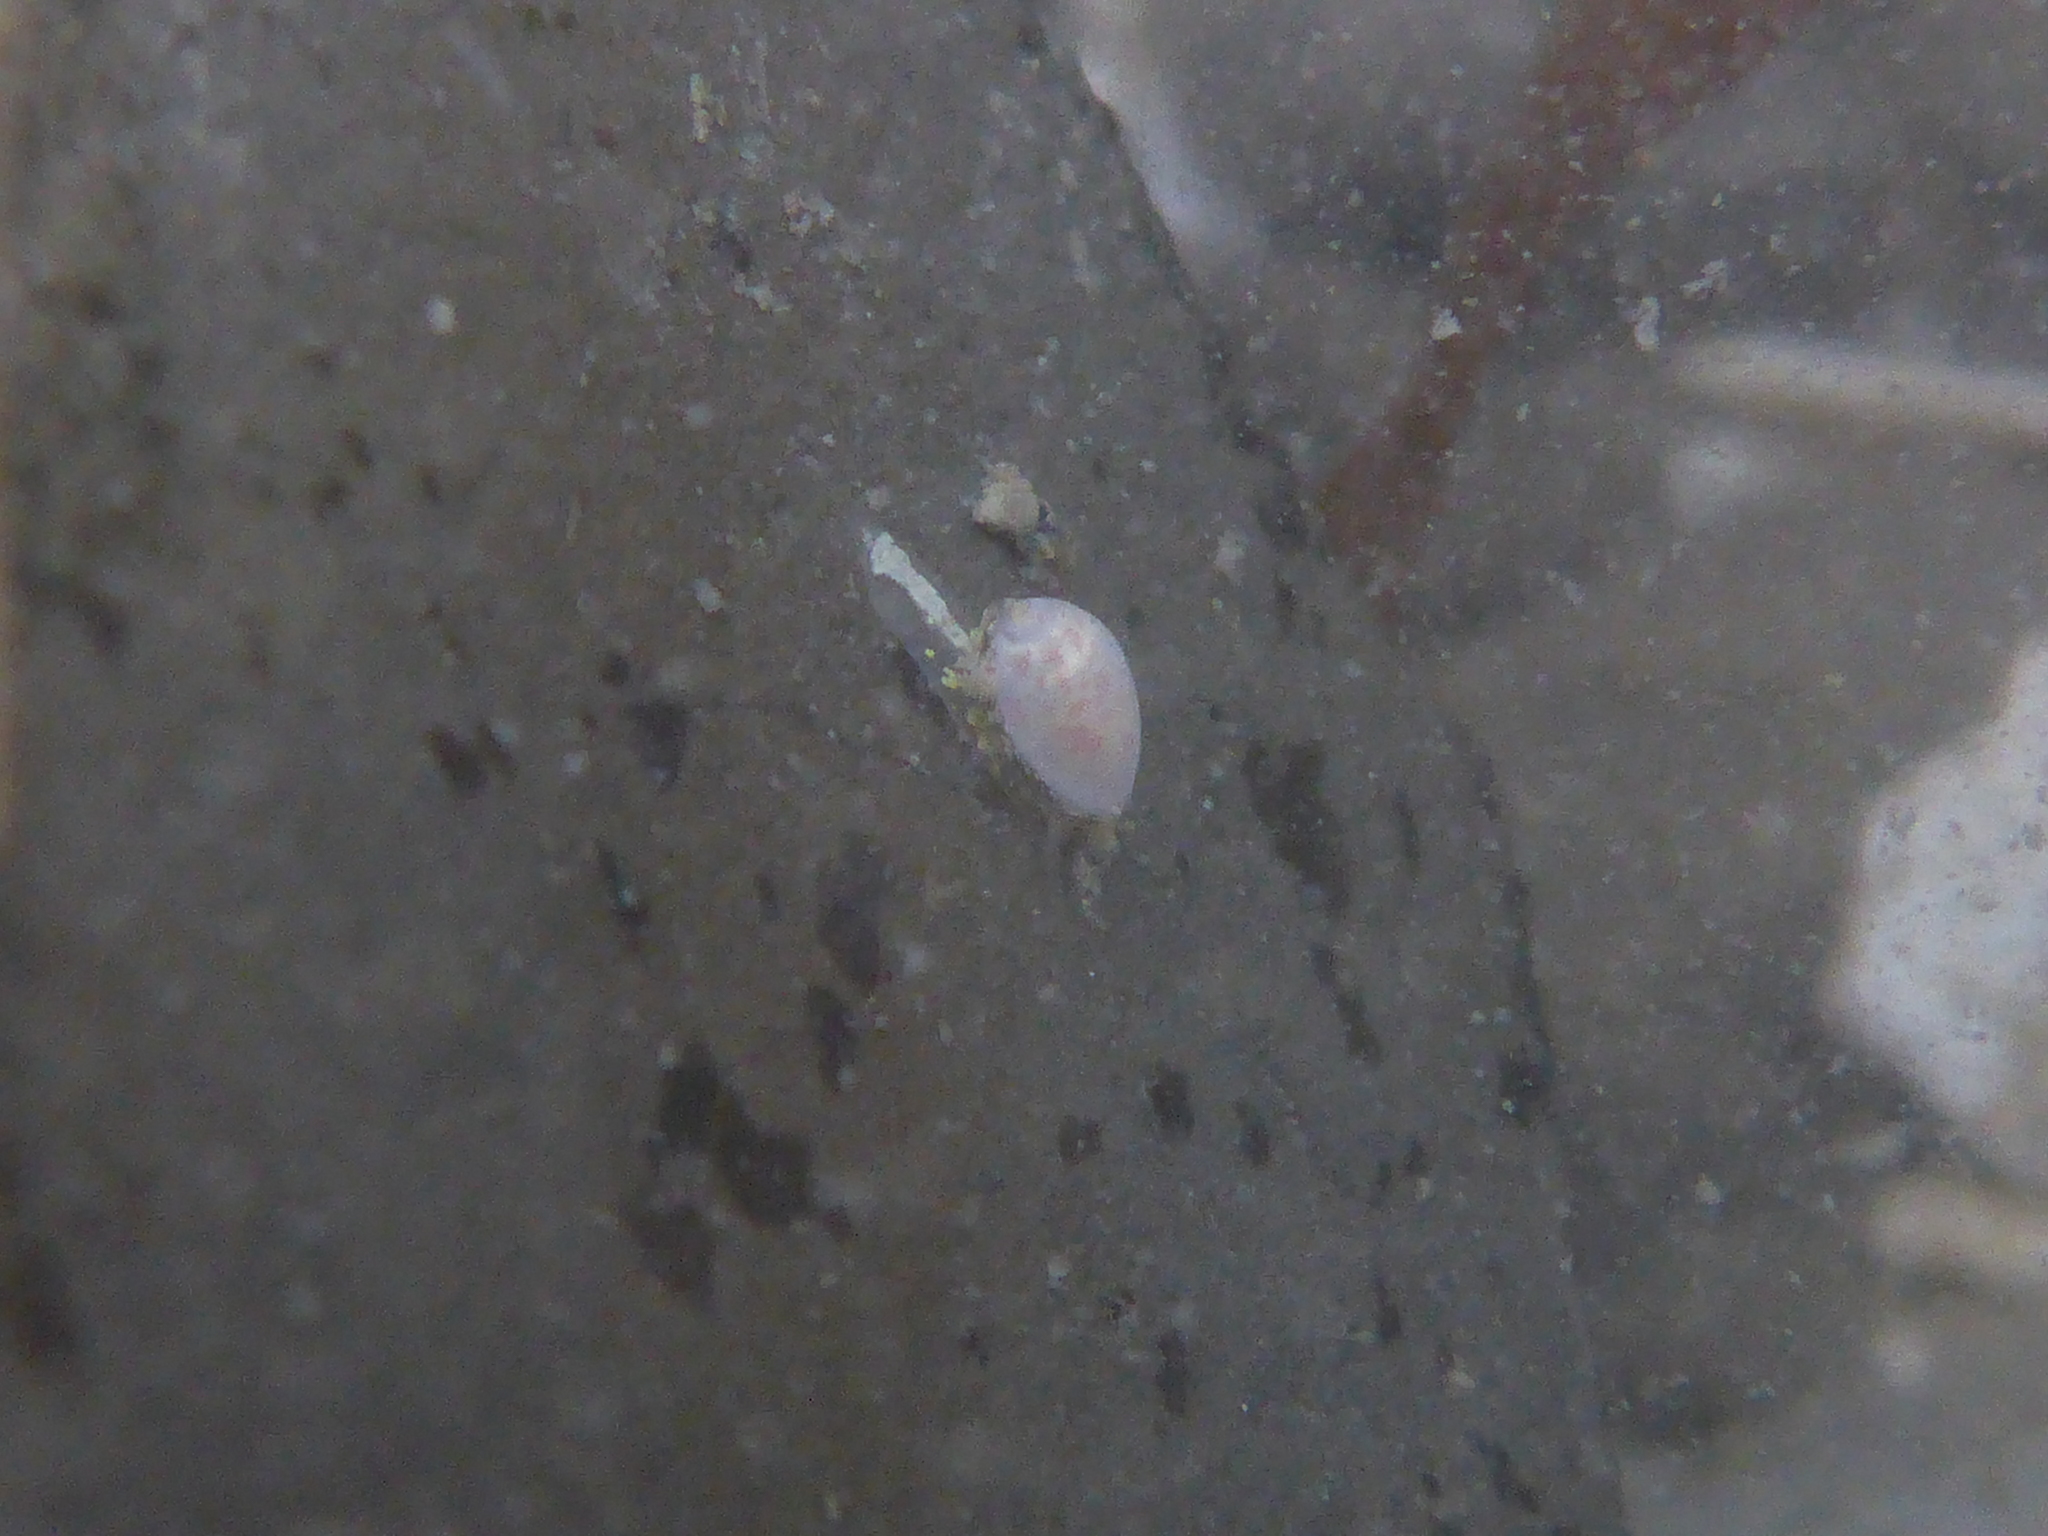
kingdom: Animalia
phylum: Mollusca
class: Gastropoda
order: Neogastropoda
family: Granulinidae
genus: Granulina
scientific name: Granulina margaritula
